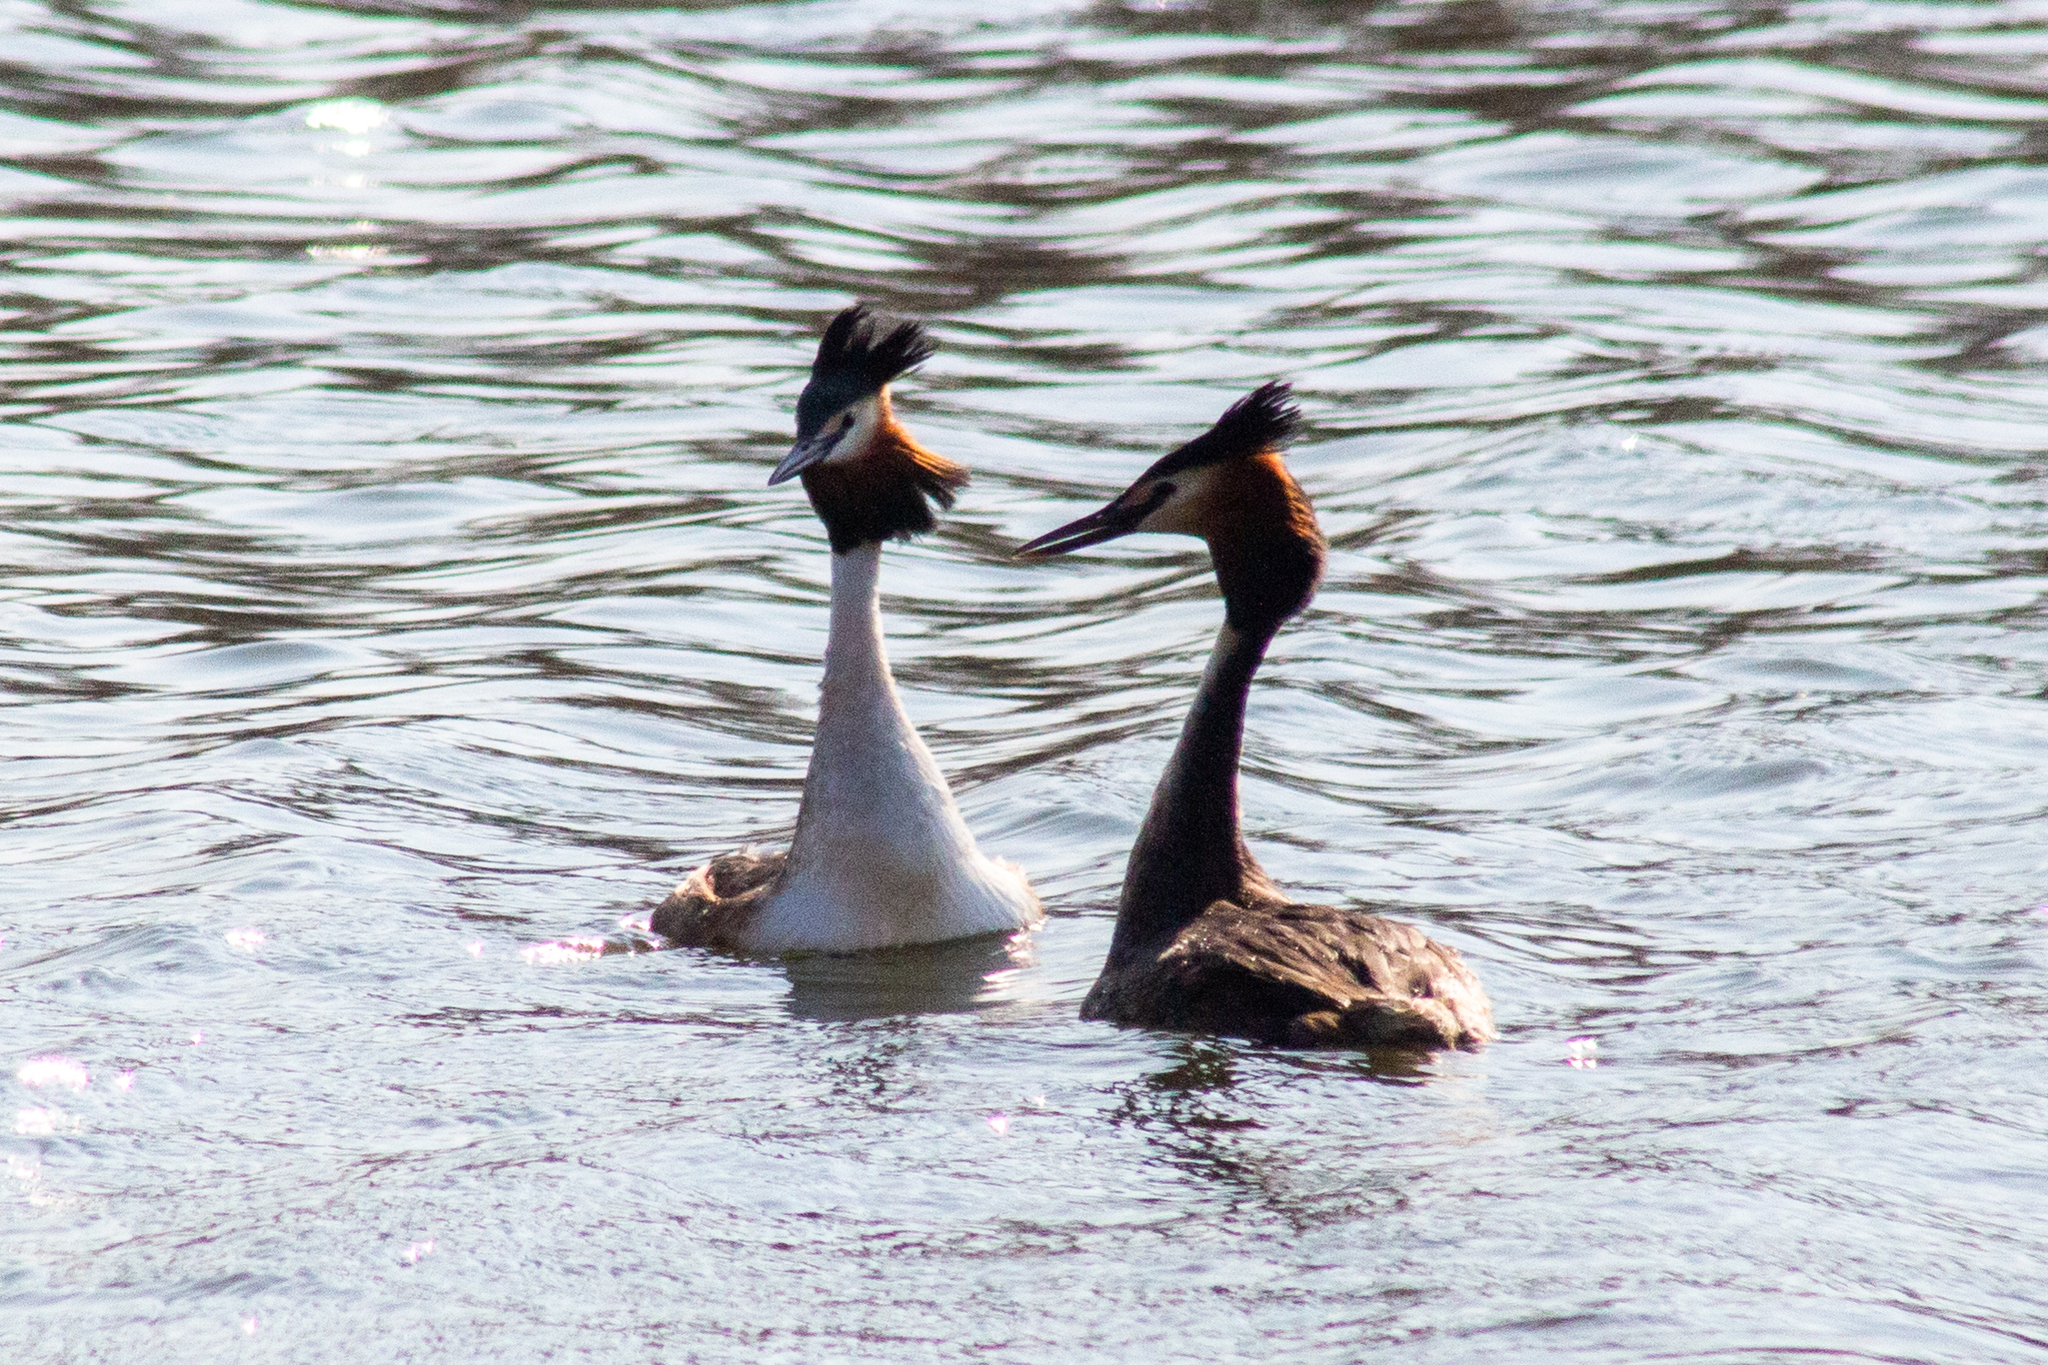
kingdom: Animalia
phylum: Chordata
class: Aves
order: Podicipediformes
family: Podicipedidae
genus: Podiceps
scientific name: Podiceps cristatus
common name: Great crested grebe
